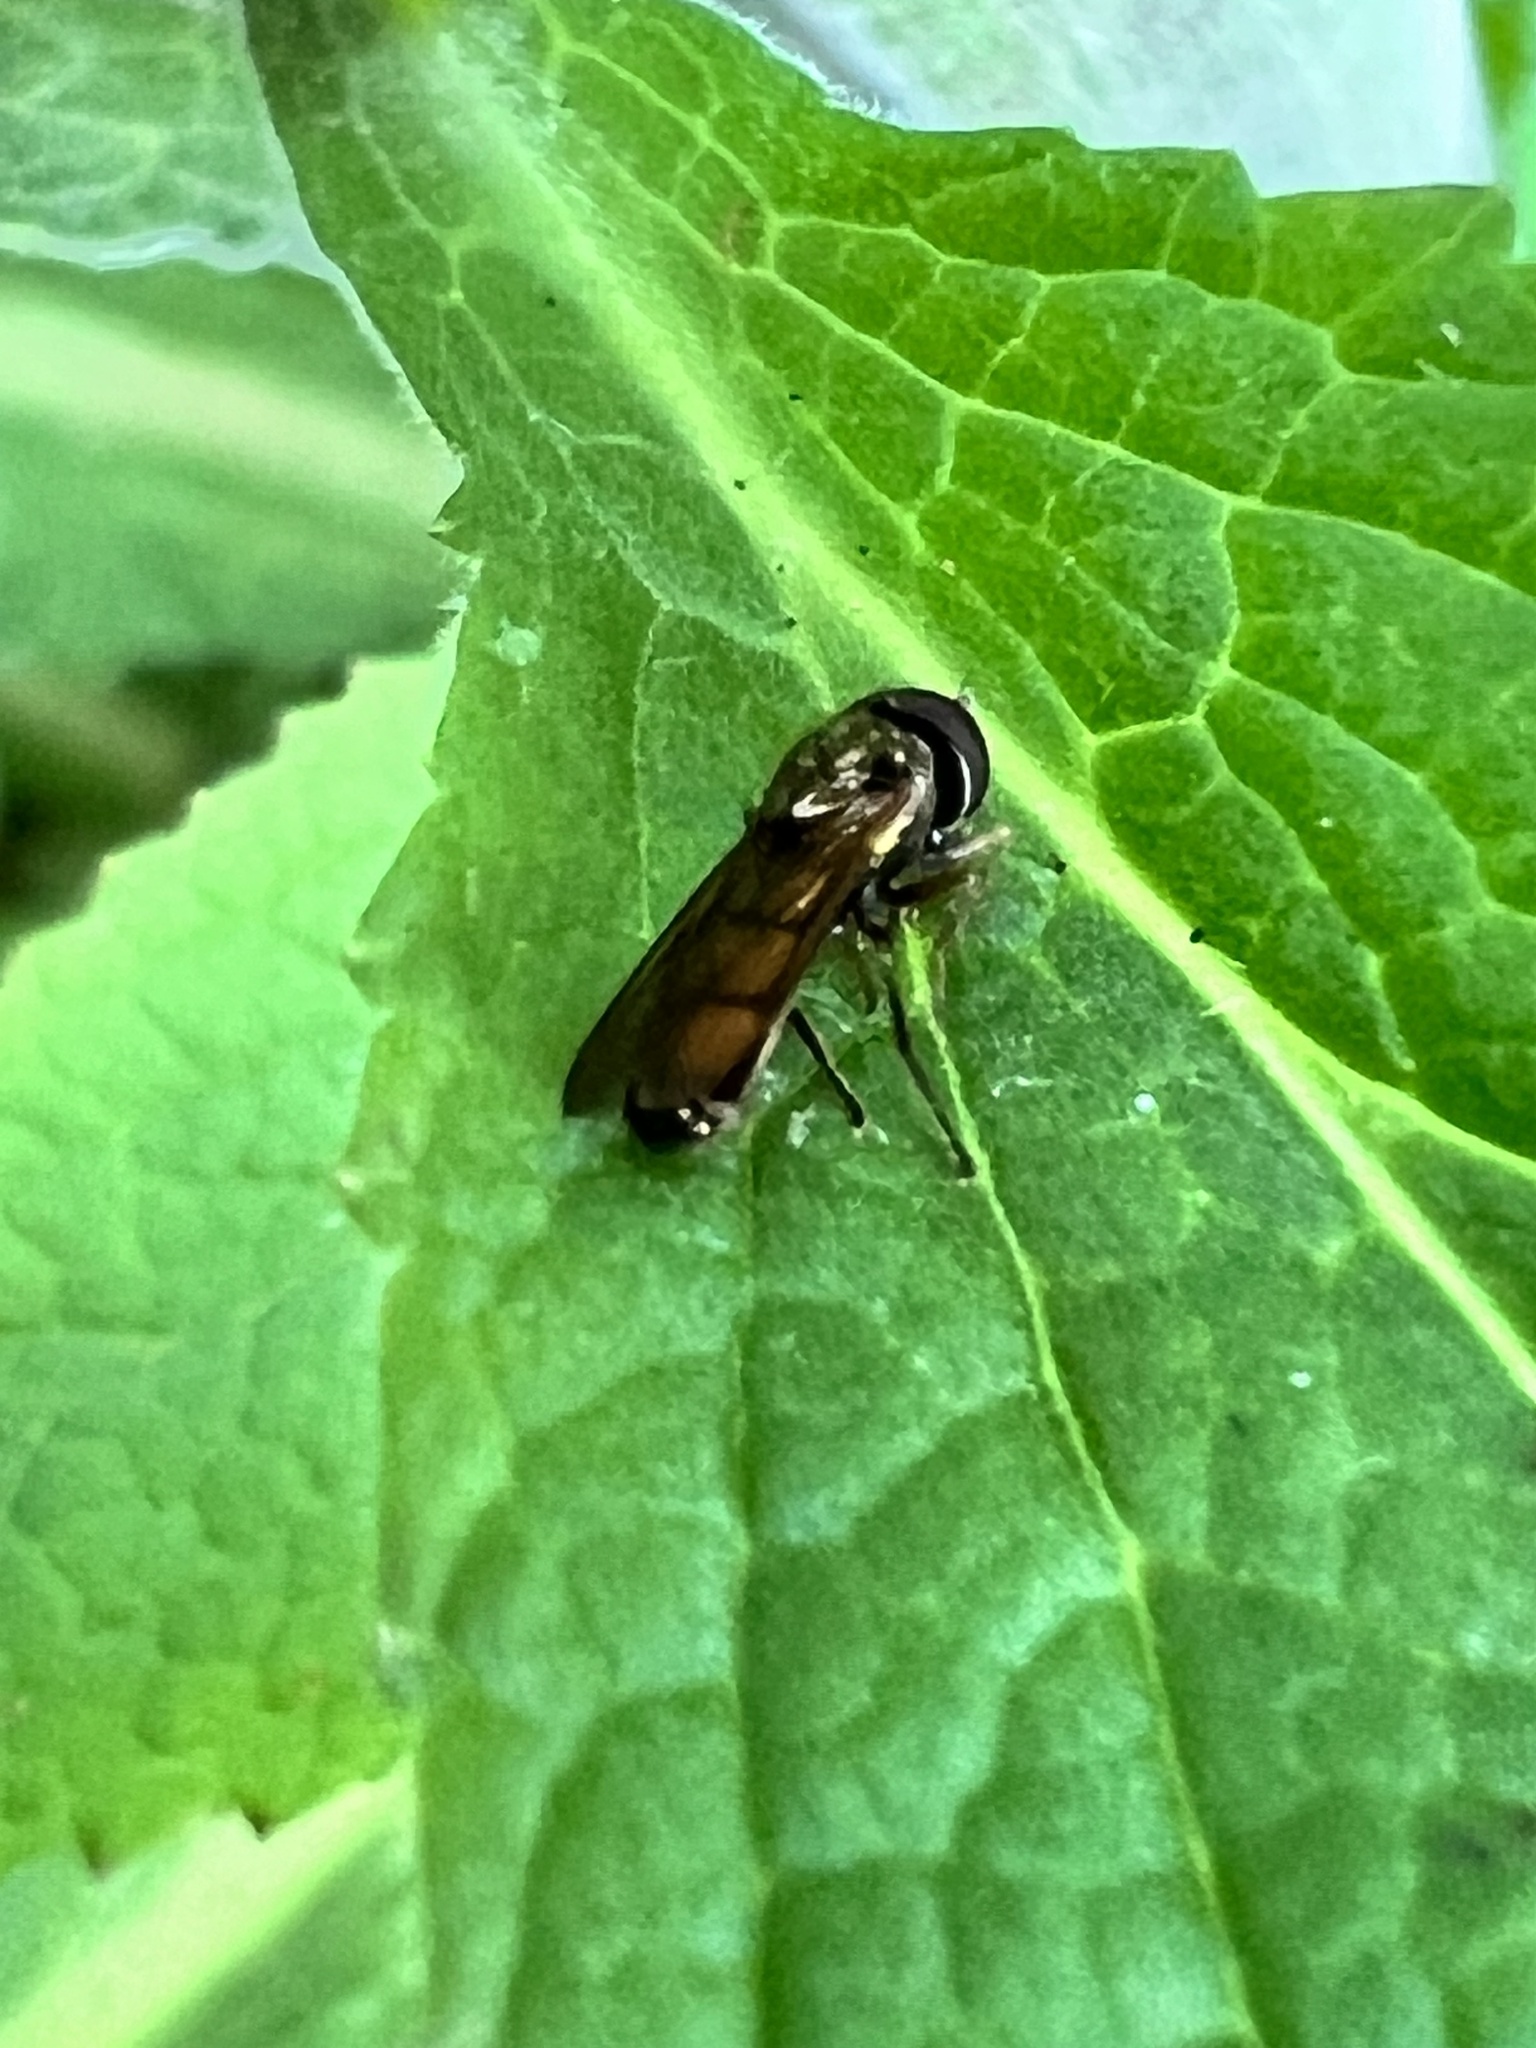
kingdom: Animalia
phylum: Arthropoda
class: Insecta
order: Diptera
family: Syrphidae
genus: Melanostoma
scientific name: Melanostoma fasciatum
